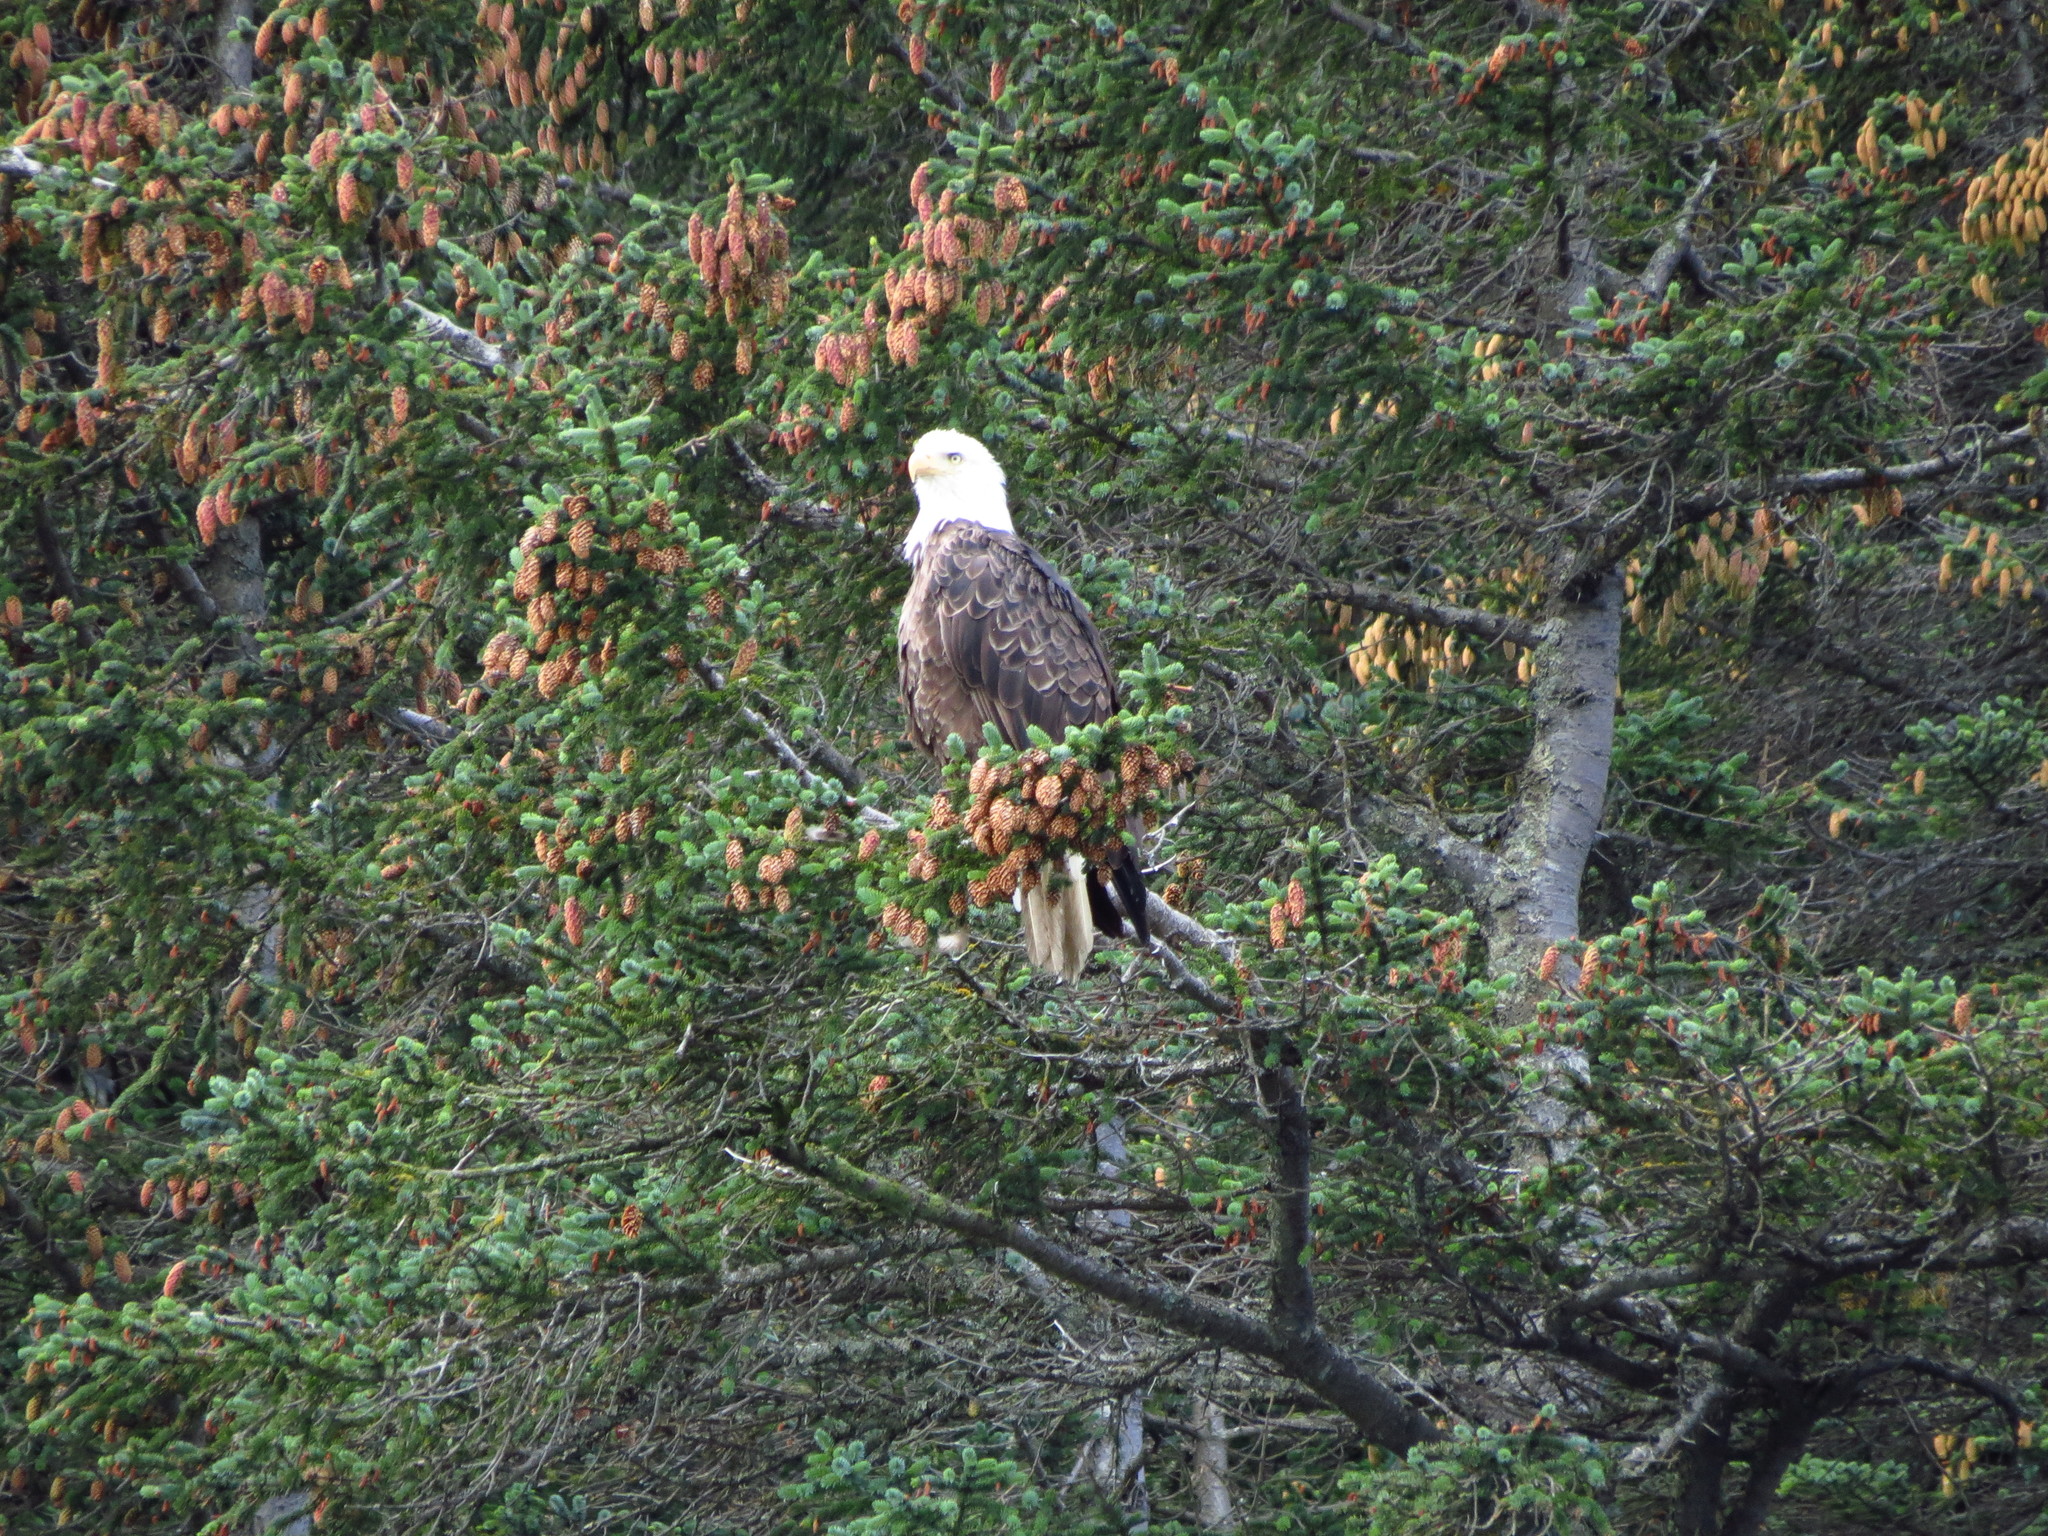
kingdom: Animalia
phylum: Chordata
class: Aves
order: Accipitriformes
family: Accipitridae
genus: Haliaeetus
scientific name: Haliaeetus leucocephalus
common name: Bald eagle
